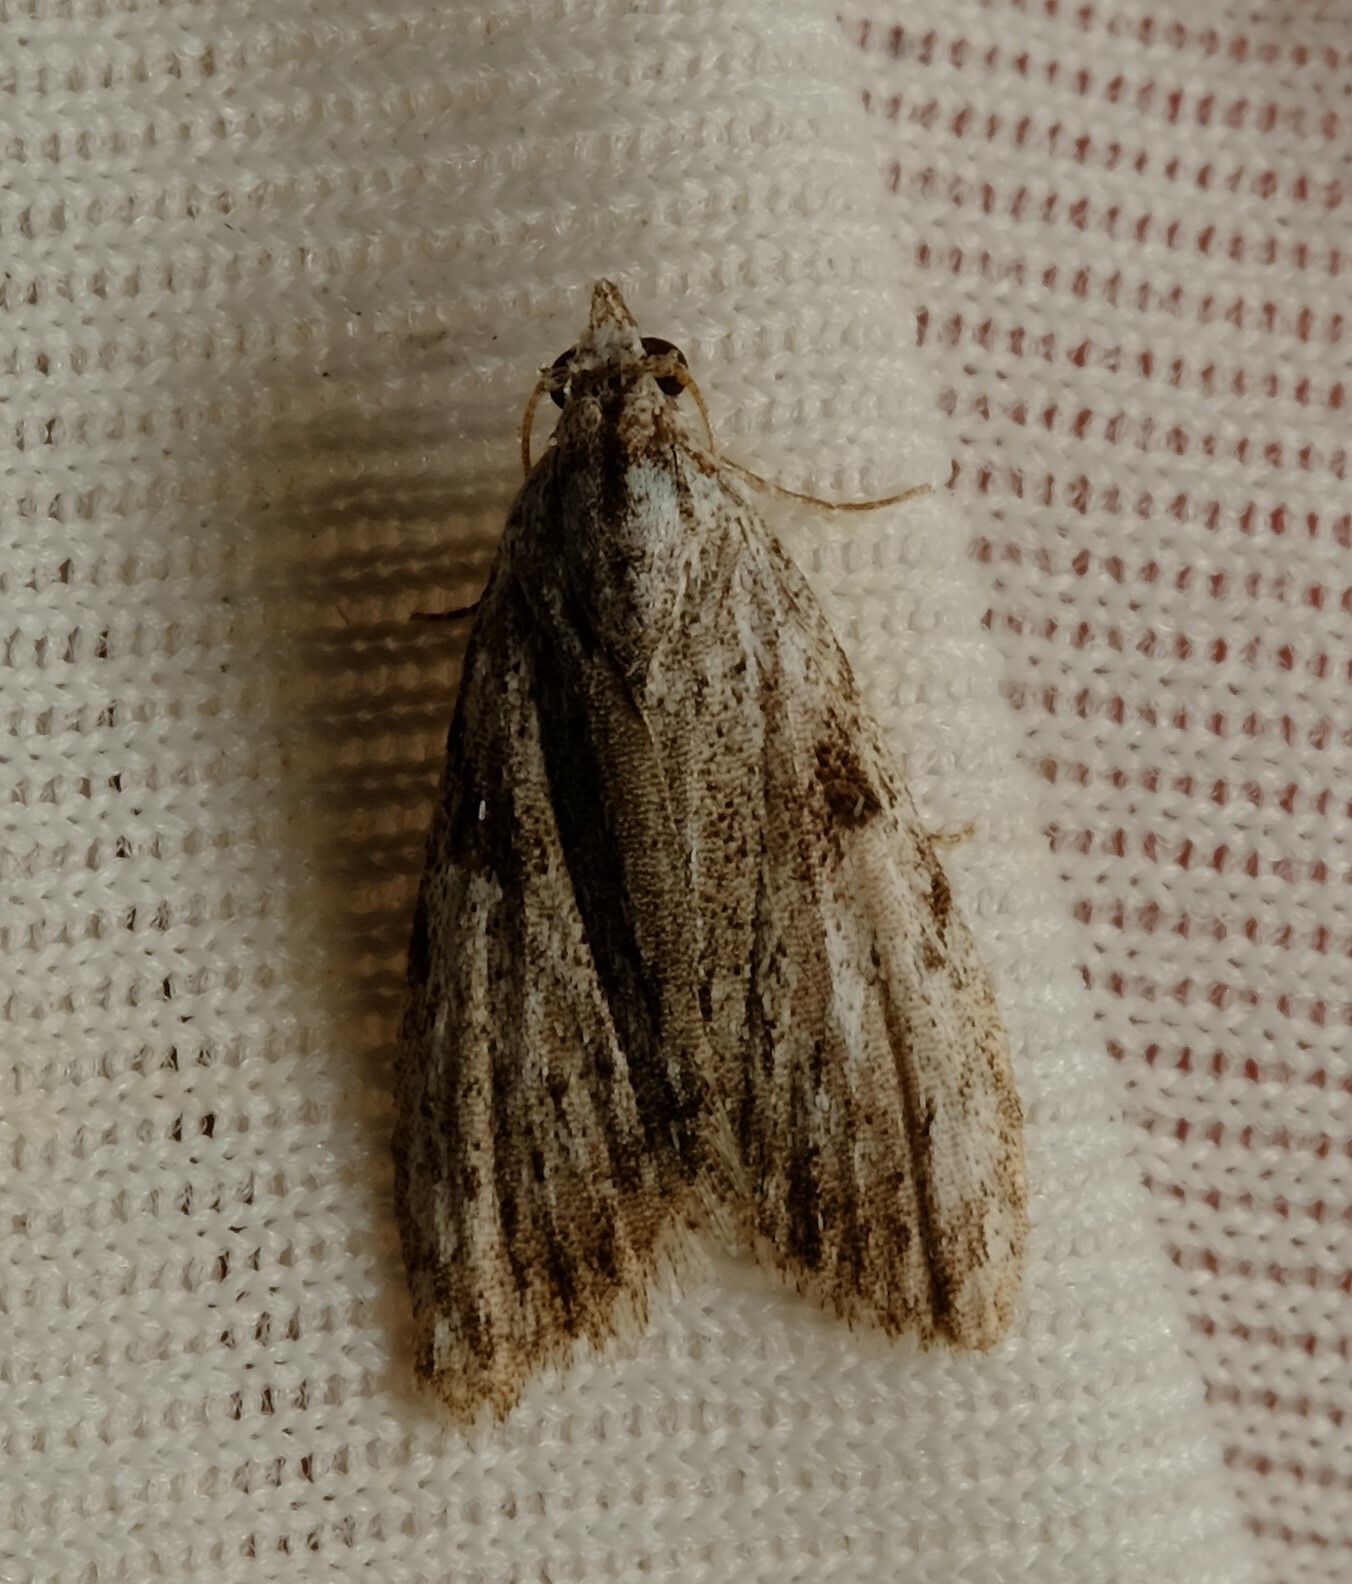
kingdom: Animalia
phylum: Arthropoda
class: Insecta
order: Lepidoptera
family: Nolidae
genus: Nola
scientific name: Nola monozona
